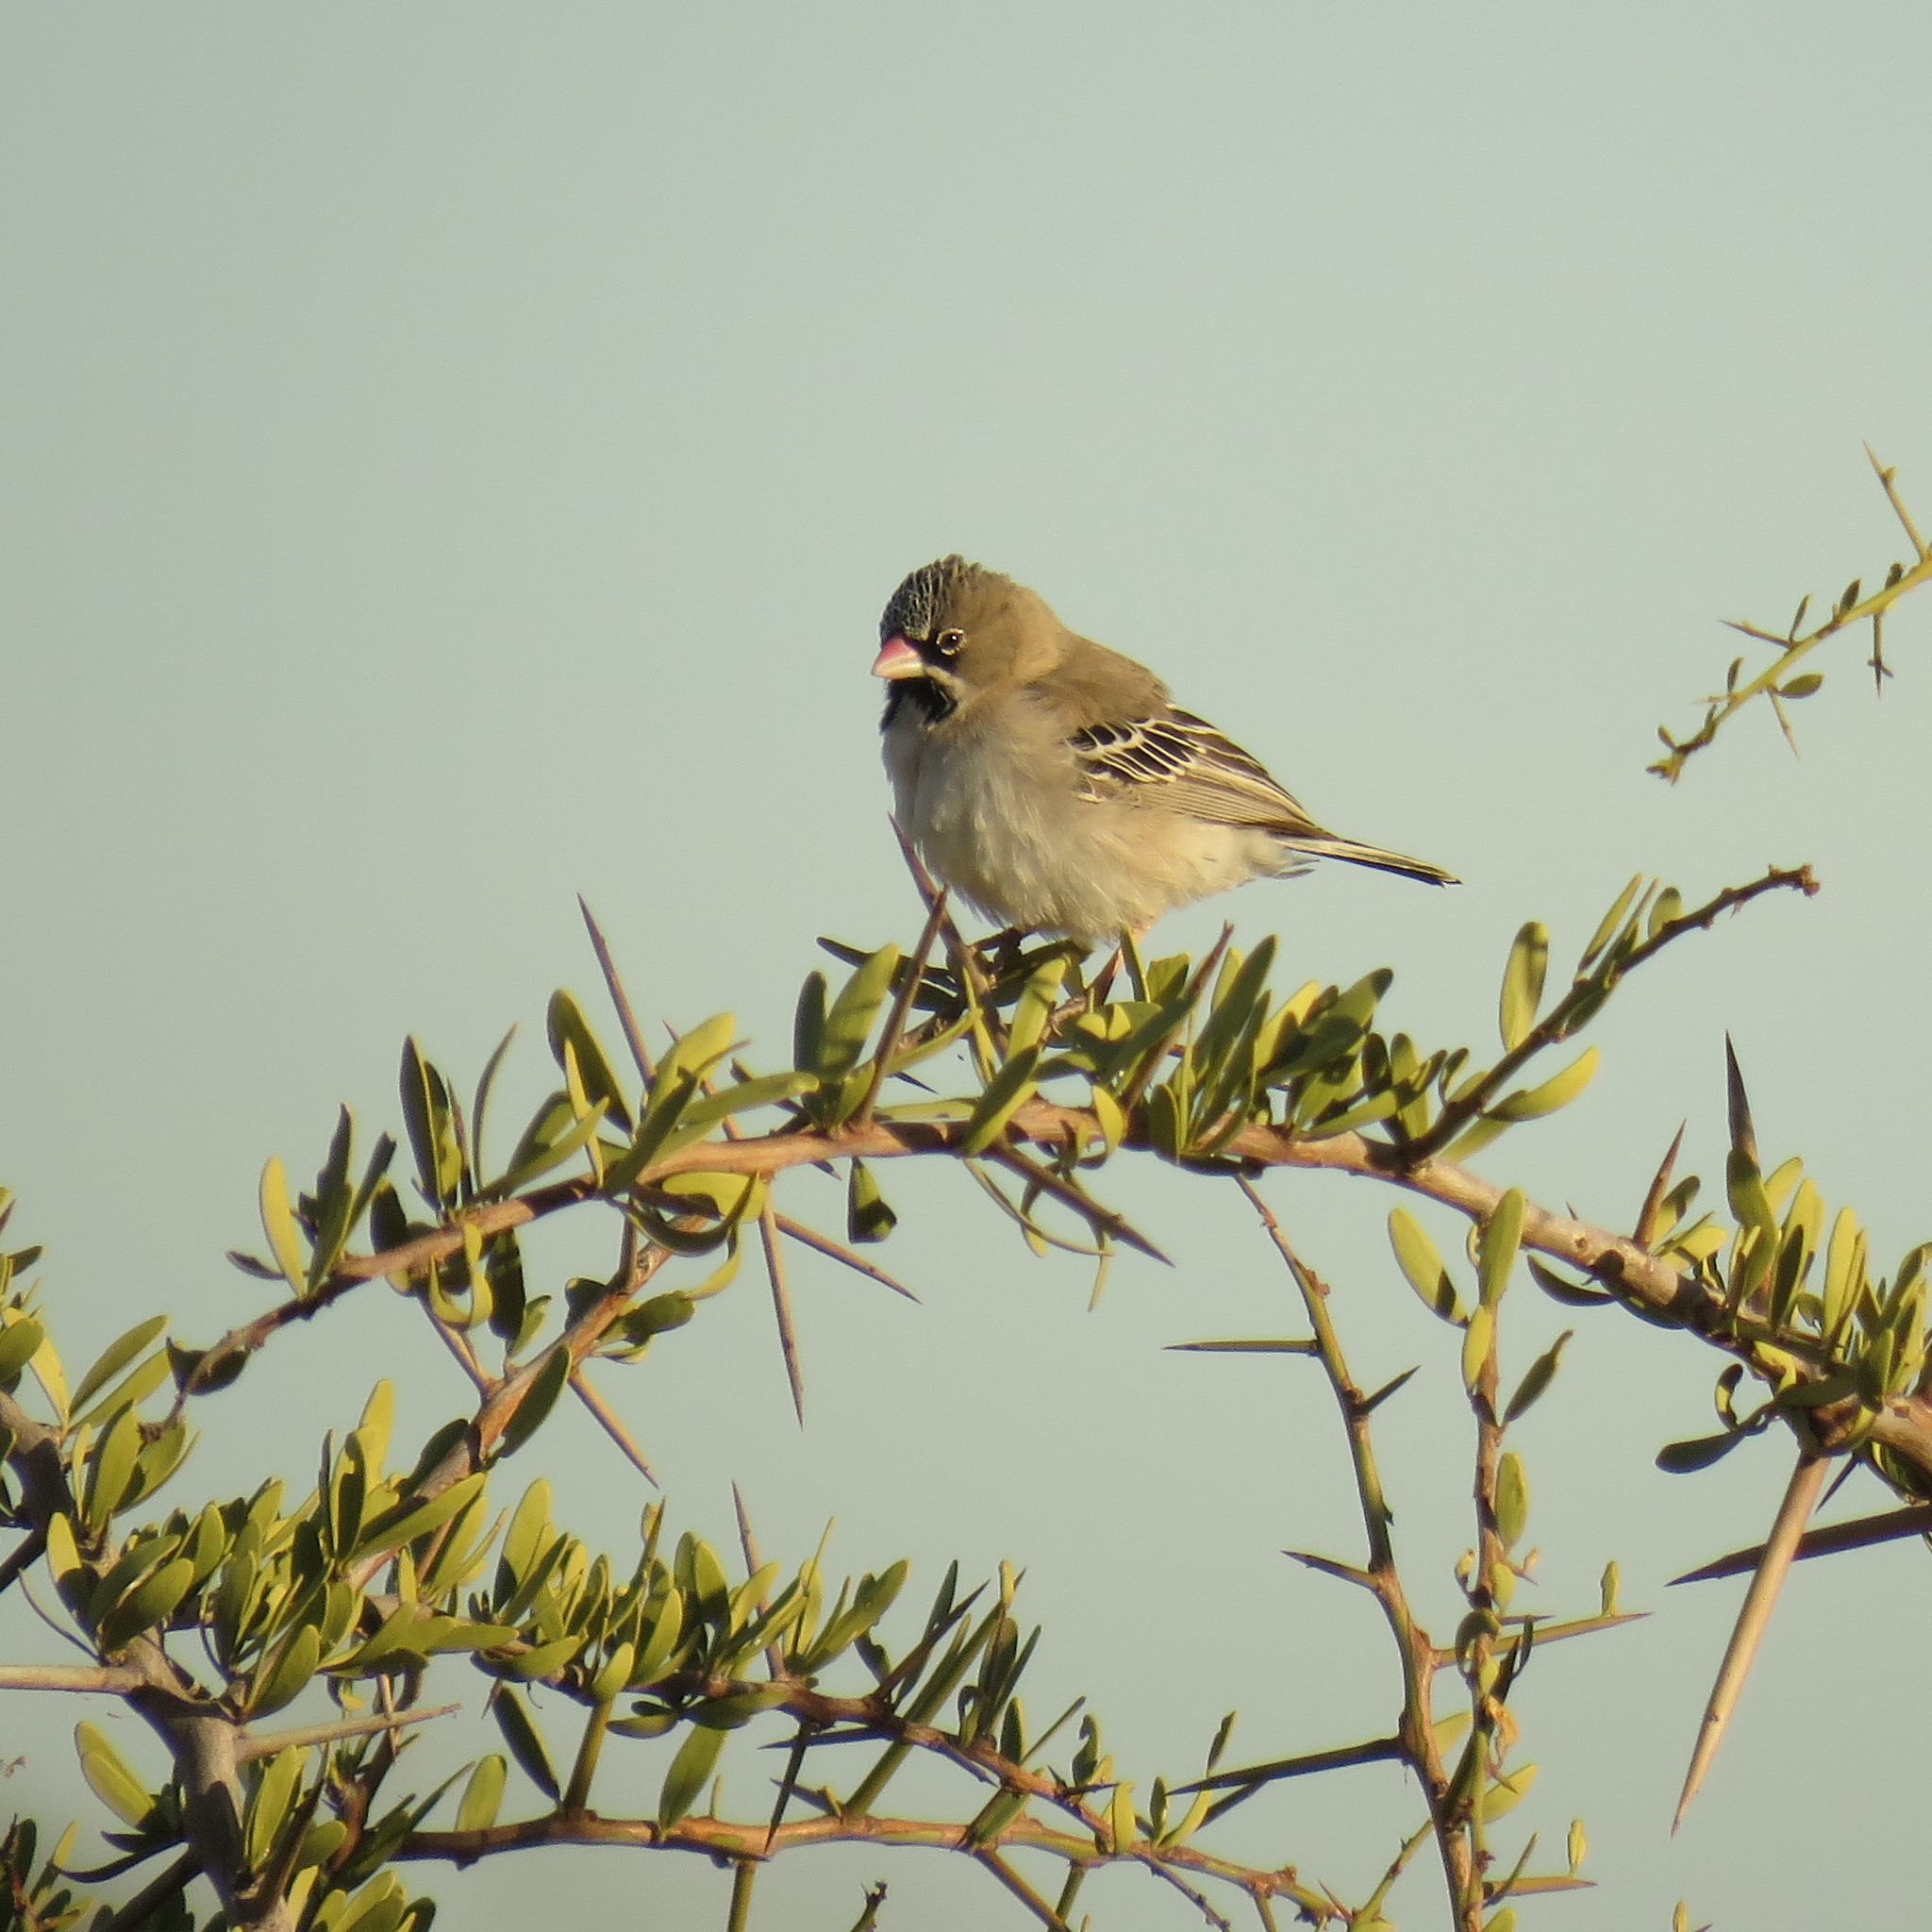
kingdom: Animalia
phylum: Chordata
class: Aves
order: Passeriformes
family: Ploceidae
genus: Sporopipes
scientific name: Sporopipes squamifrons
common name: Scaly-feathered weaver
